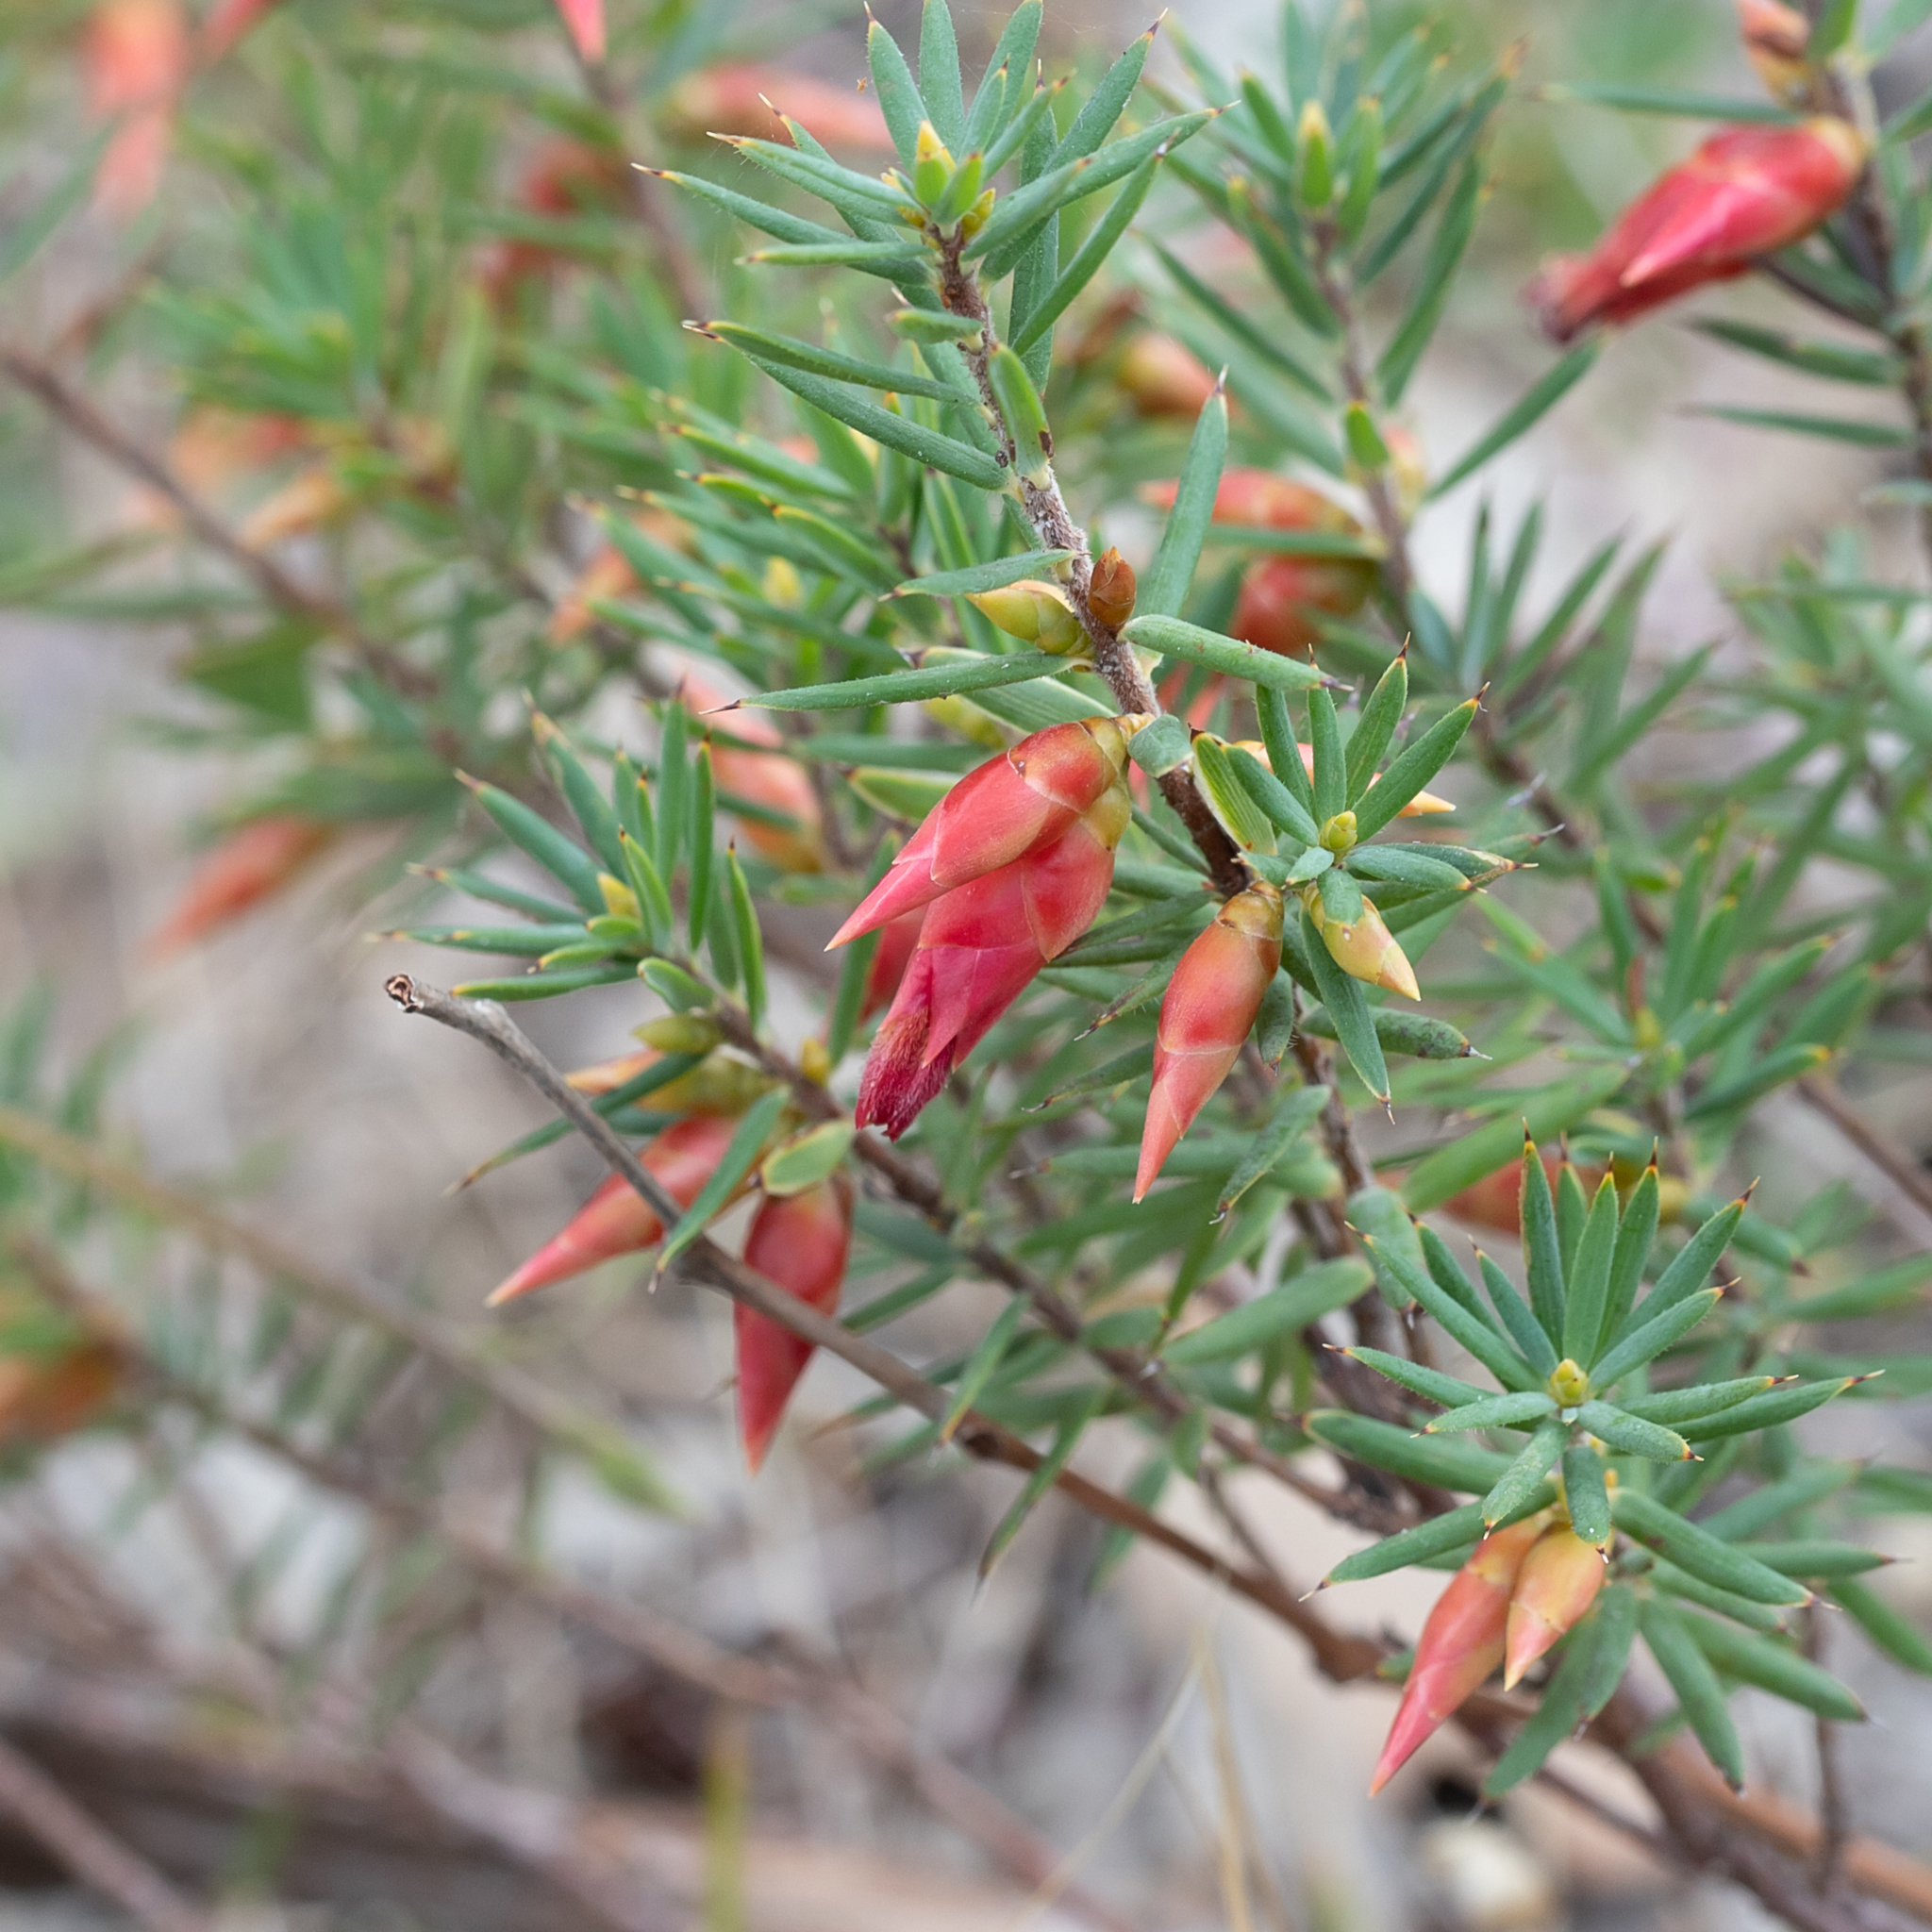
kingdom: Plantae
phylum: Tracheophyta
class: Magnoliopsida
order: Ericales
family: Ericaceae
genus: Stenanthera
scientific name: Stenanthera conostephioides
